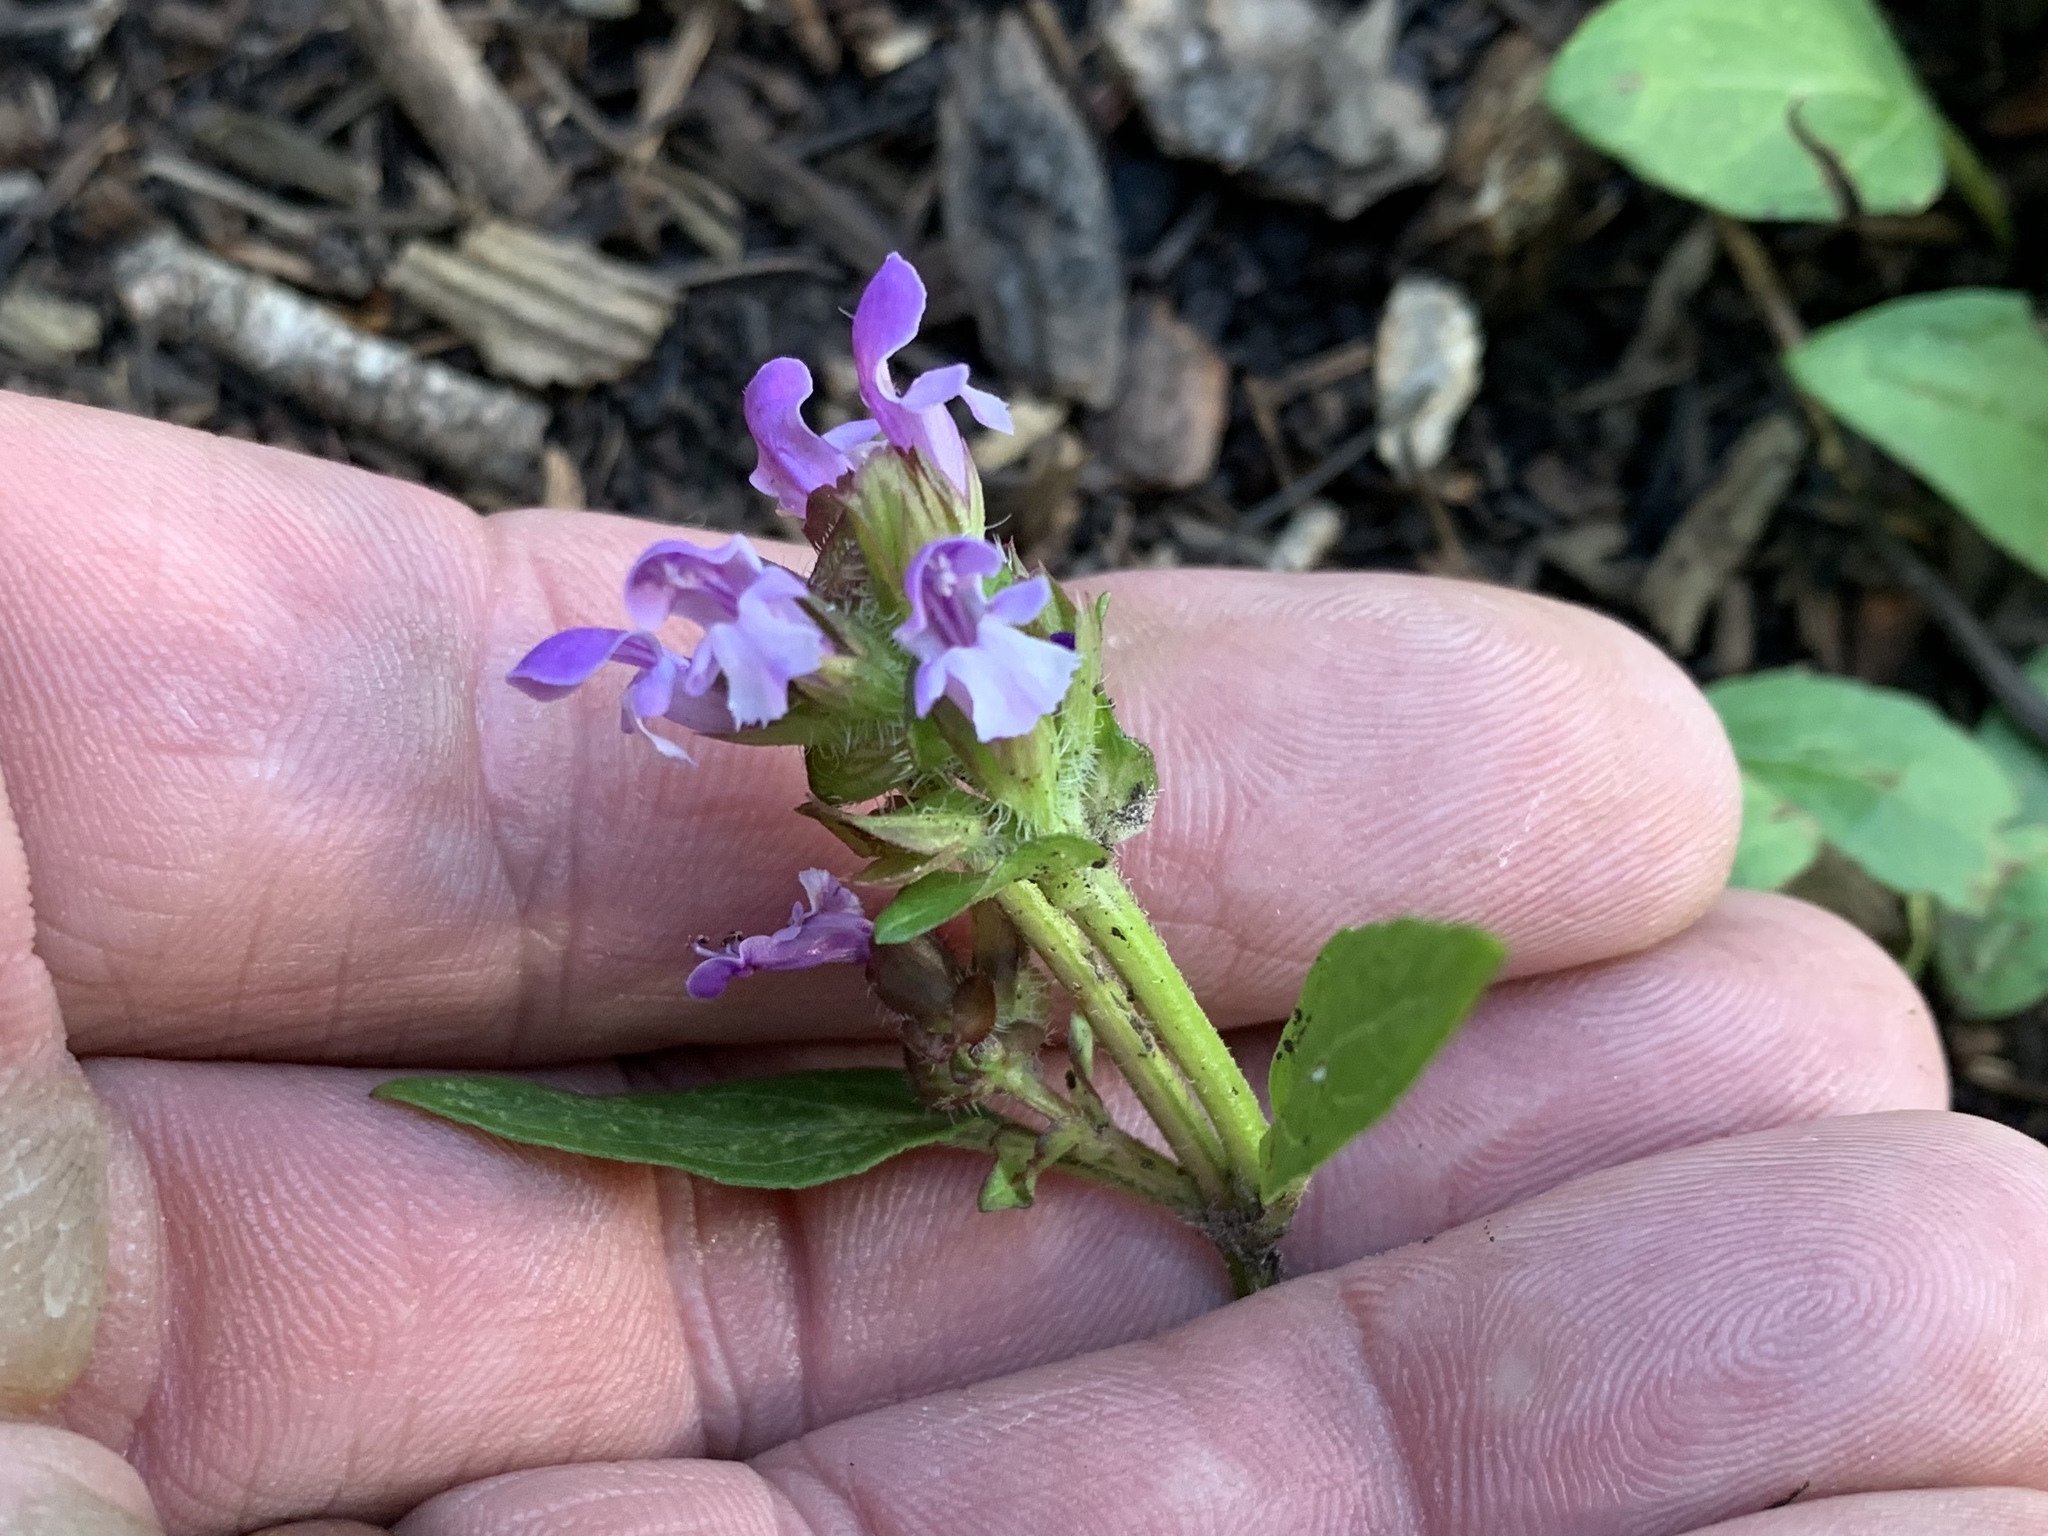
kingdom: Plantae
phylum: Tracheophyta
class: Magnoliopsida
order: Lamiales
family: Lamiaceae
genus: Prunella
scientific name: Prunella vulgaris
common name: Heal-all
